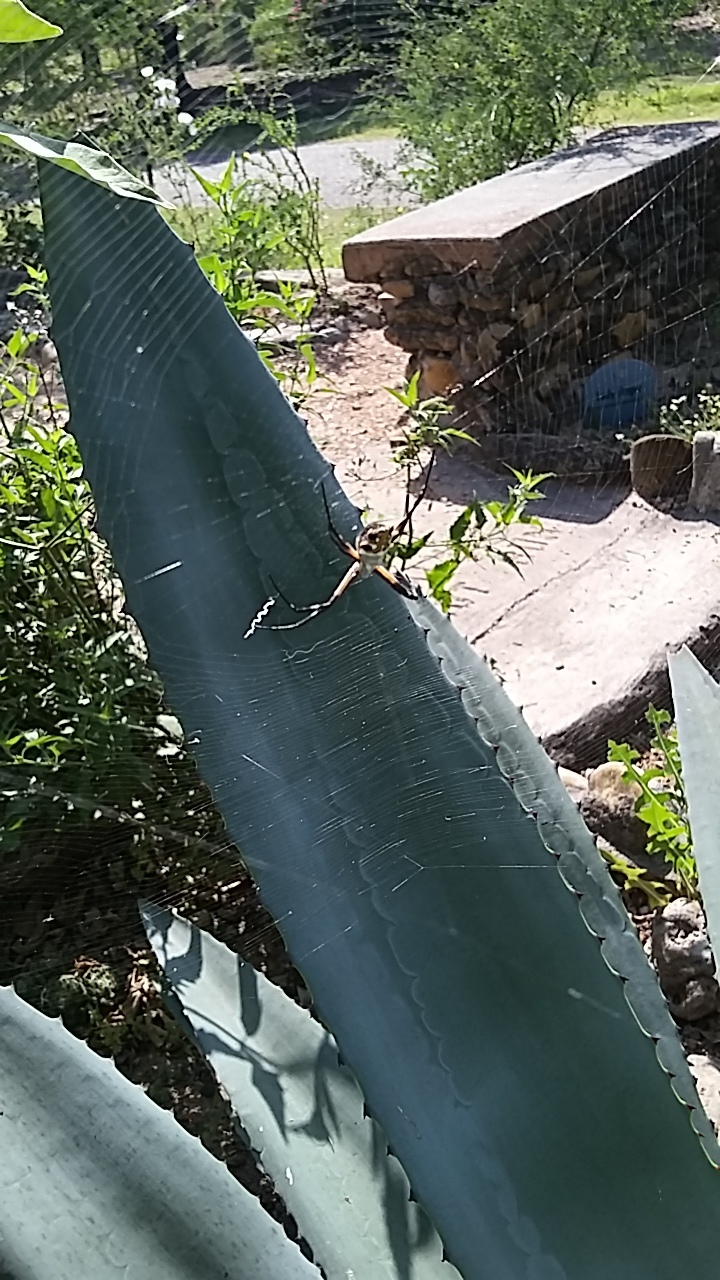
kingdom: Animalia
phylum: Arthropoda
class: Arachnida
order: Araneae
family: Araneidae
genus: Argiope
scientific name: Argiope argentata
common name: Orb weavers
